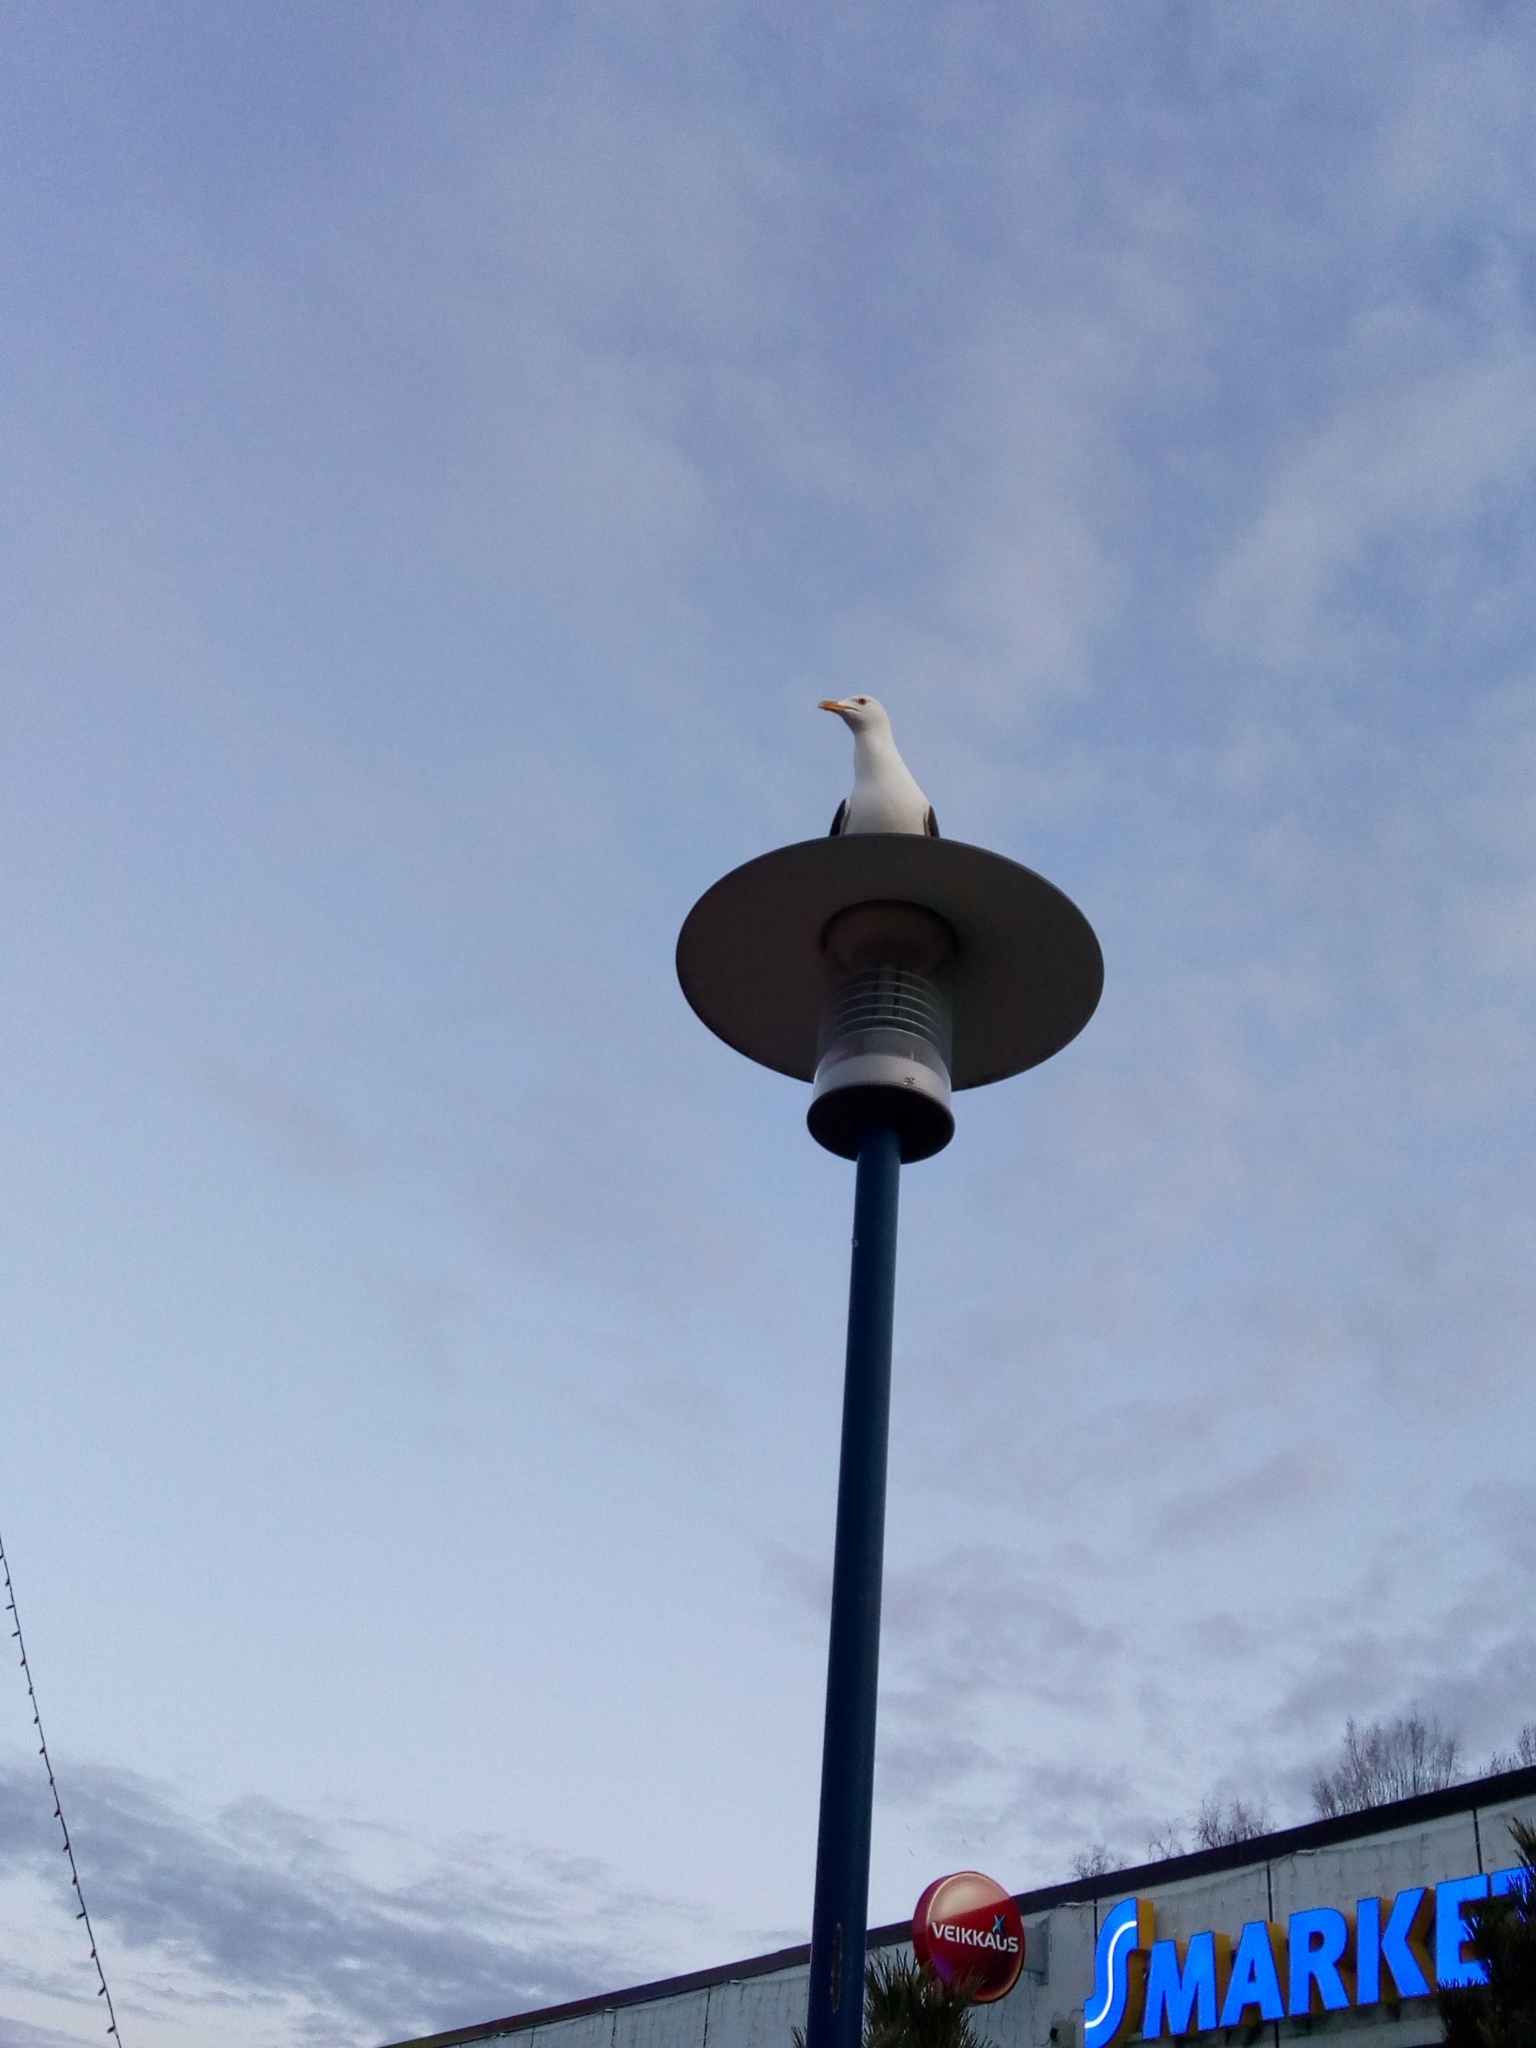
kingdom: Animalia
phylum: Chordata
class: Aves
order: Charadriiformes
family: Laridae
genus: Larus
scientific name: Larus fuscus
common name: Lesser black-backed gull
